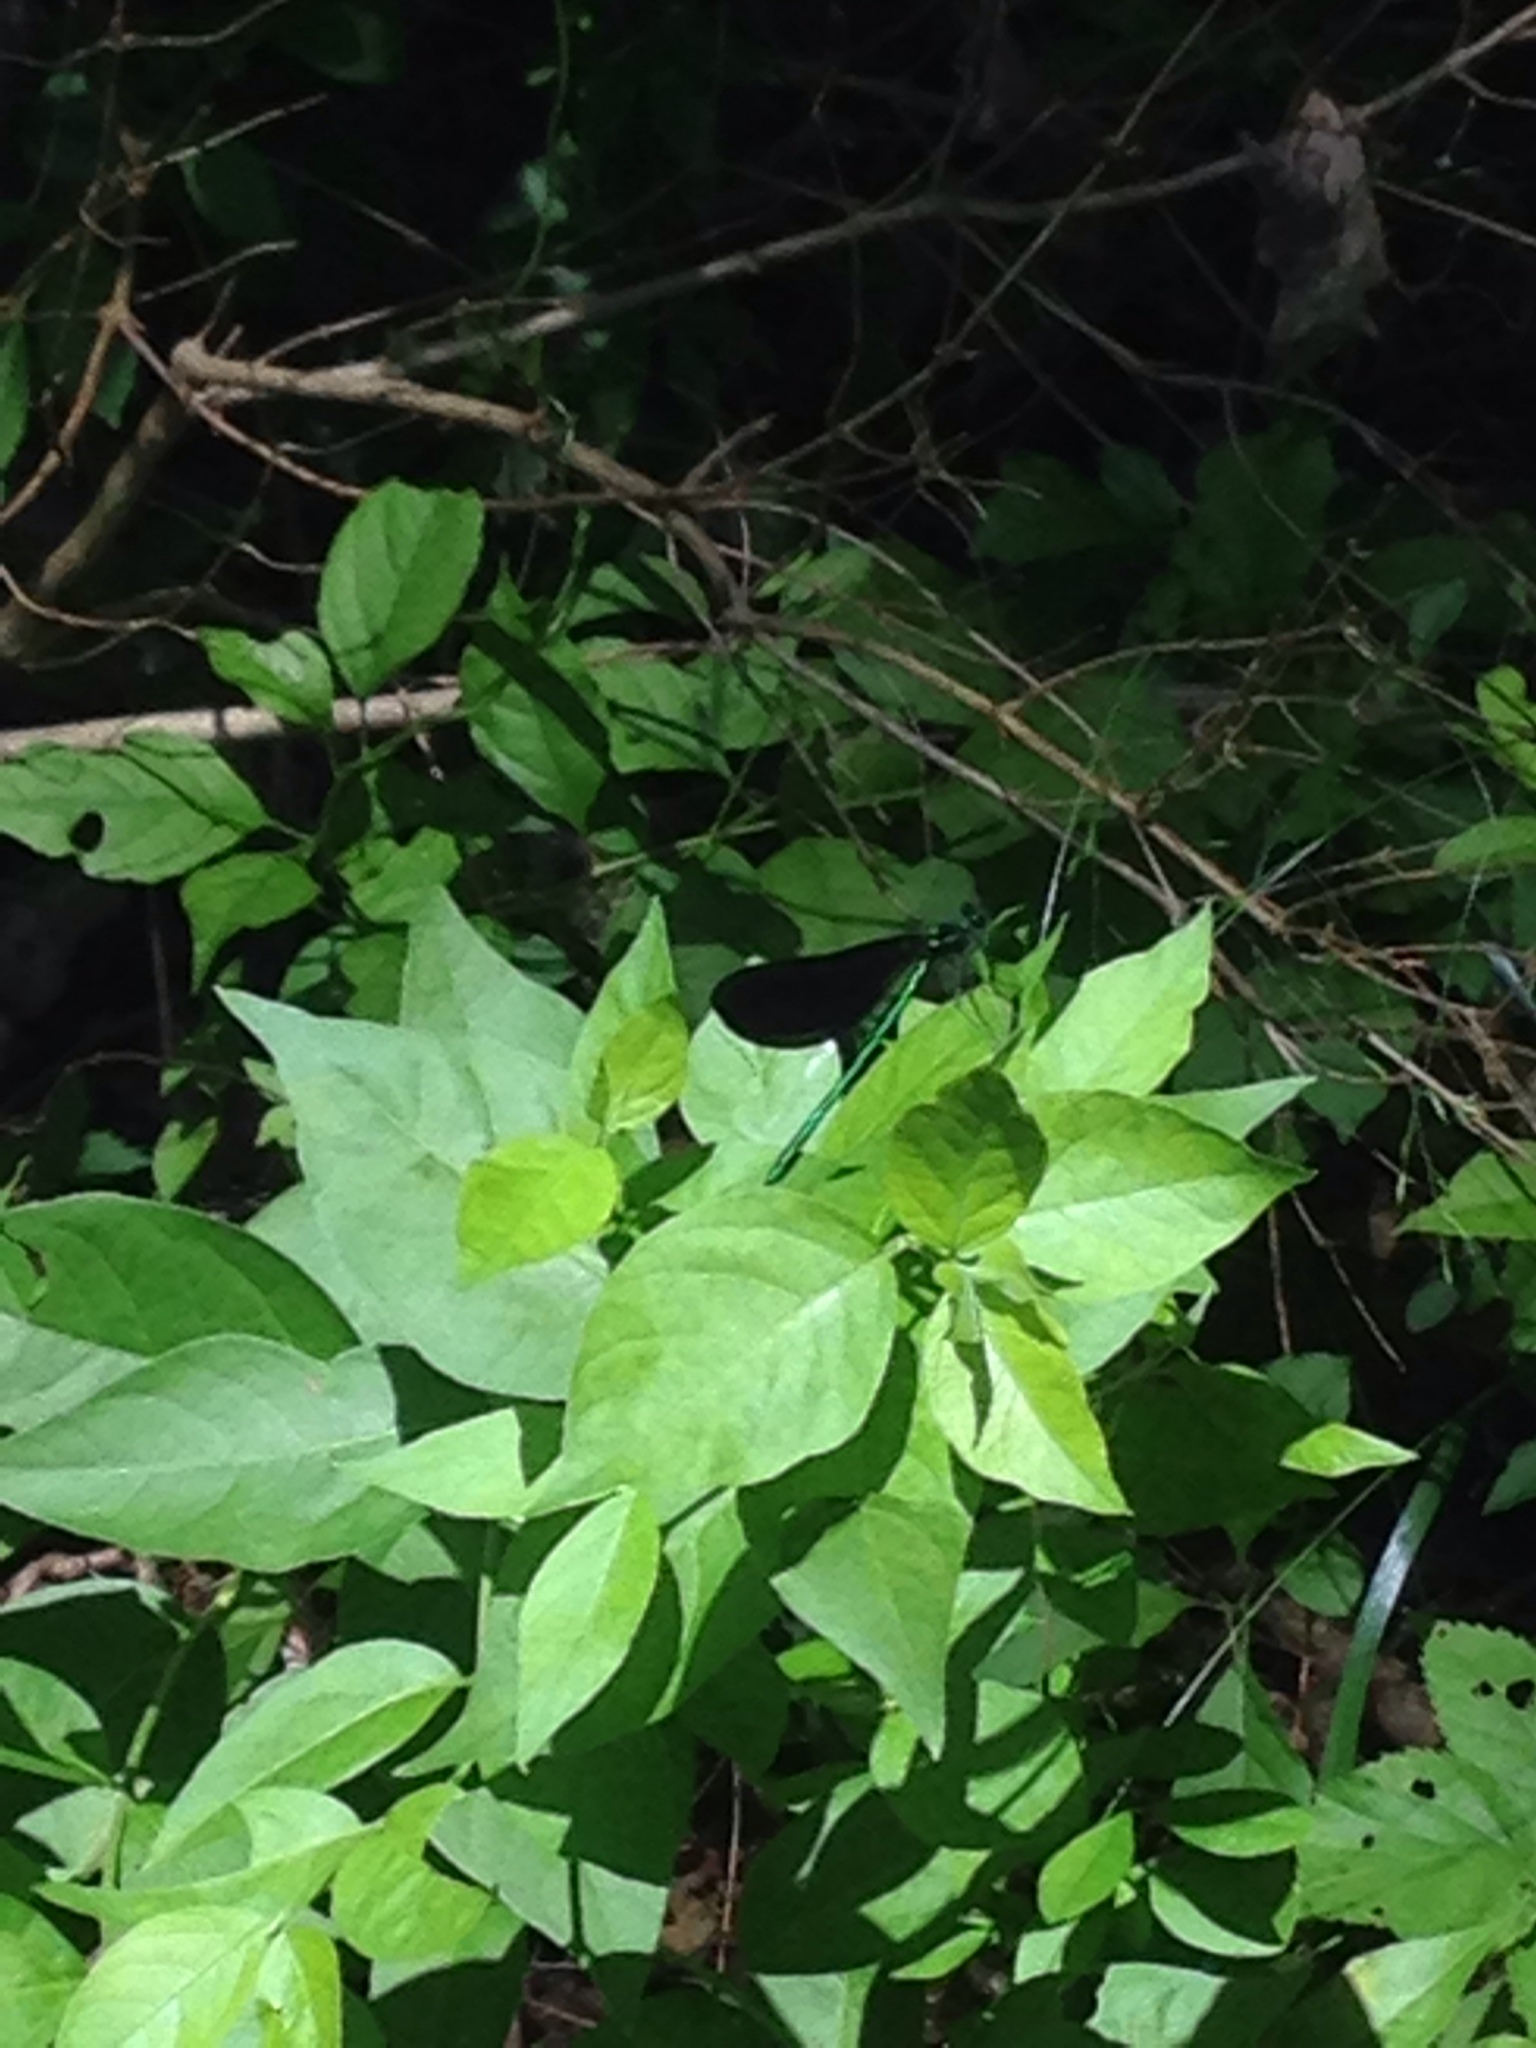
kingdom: Animalia
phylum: Arthropoda
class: Insecta
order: Odonata
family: Calopterygidae
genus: Calopteryx
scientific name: Calopteryx maculata
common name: Ebony jewelwing
